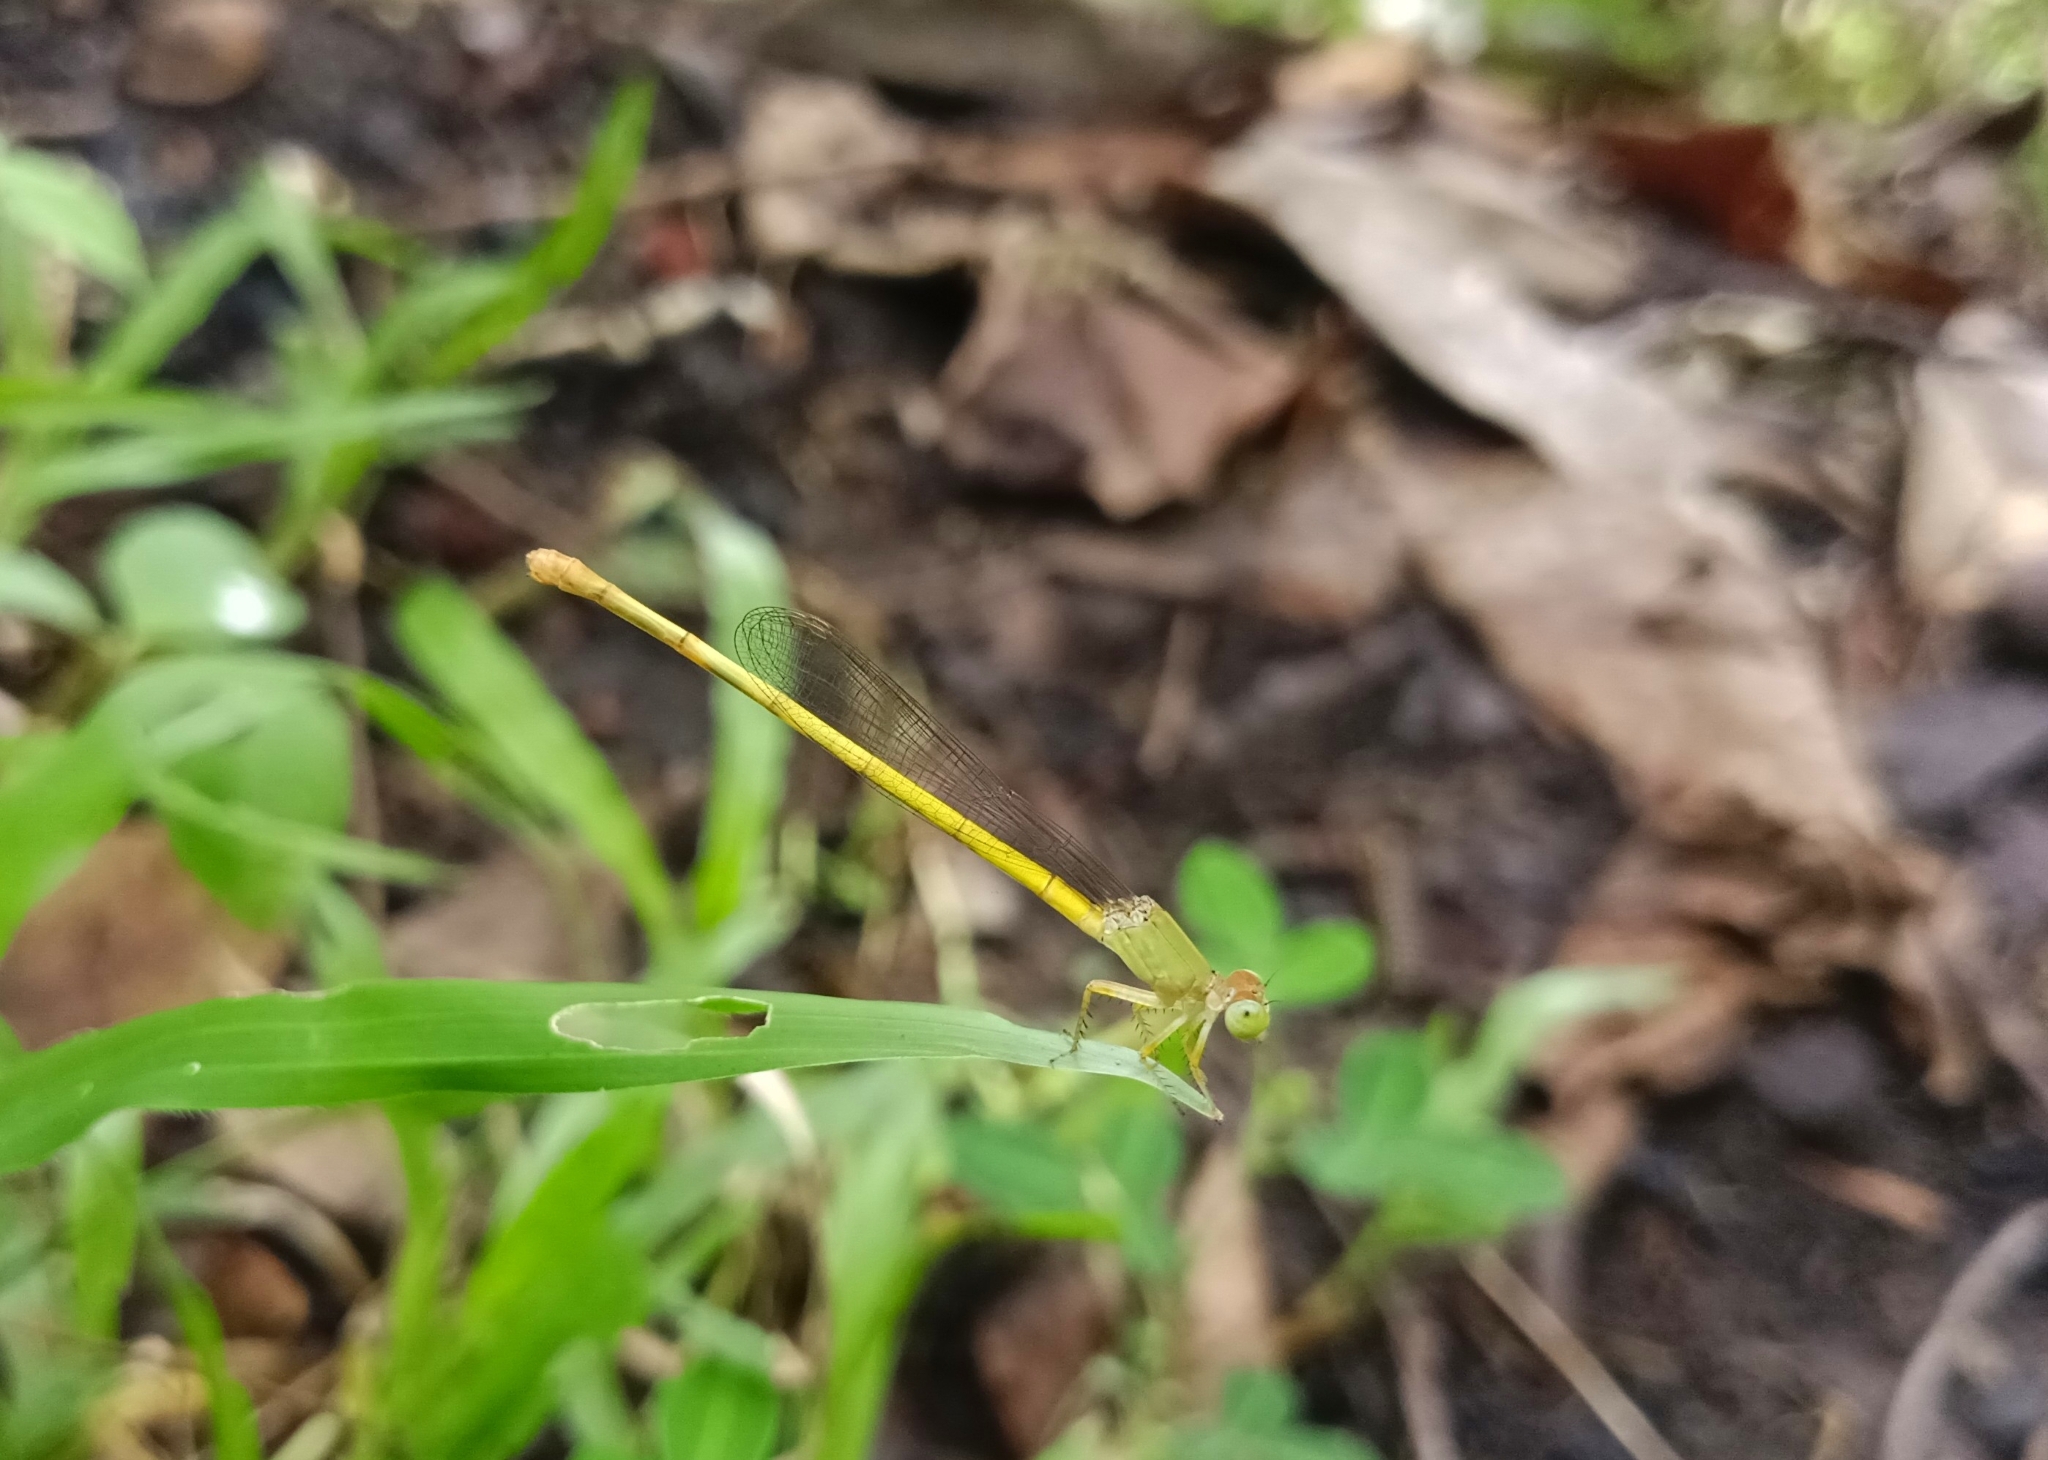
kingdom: Animalia
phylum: Arthropoda
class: Insecta
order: Odonata
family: Coenagrionidae
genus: Ceriagrion
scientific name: Ceriagrion coromandelianum
